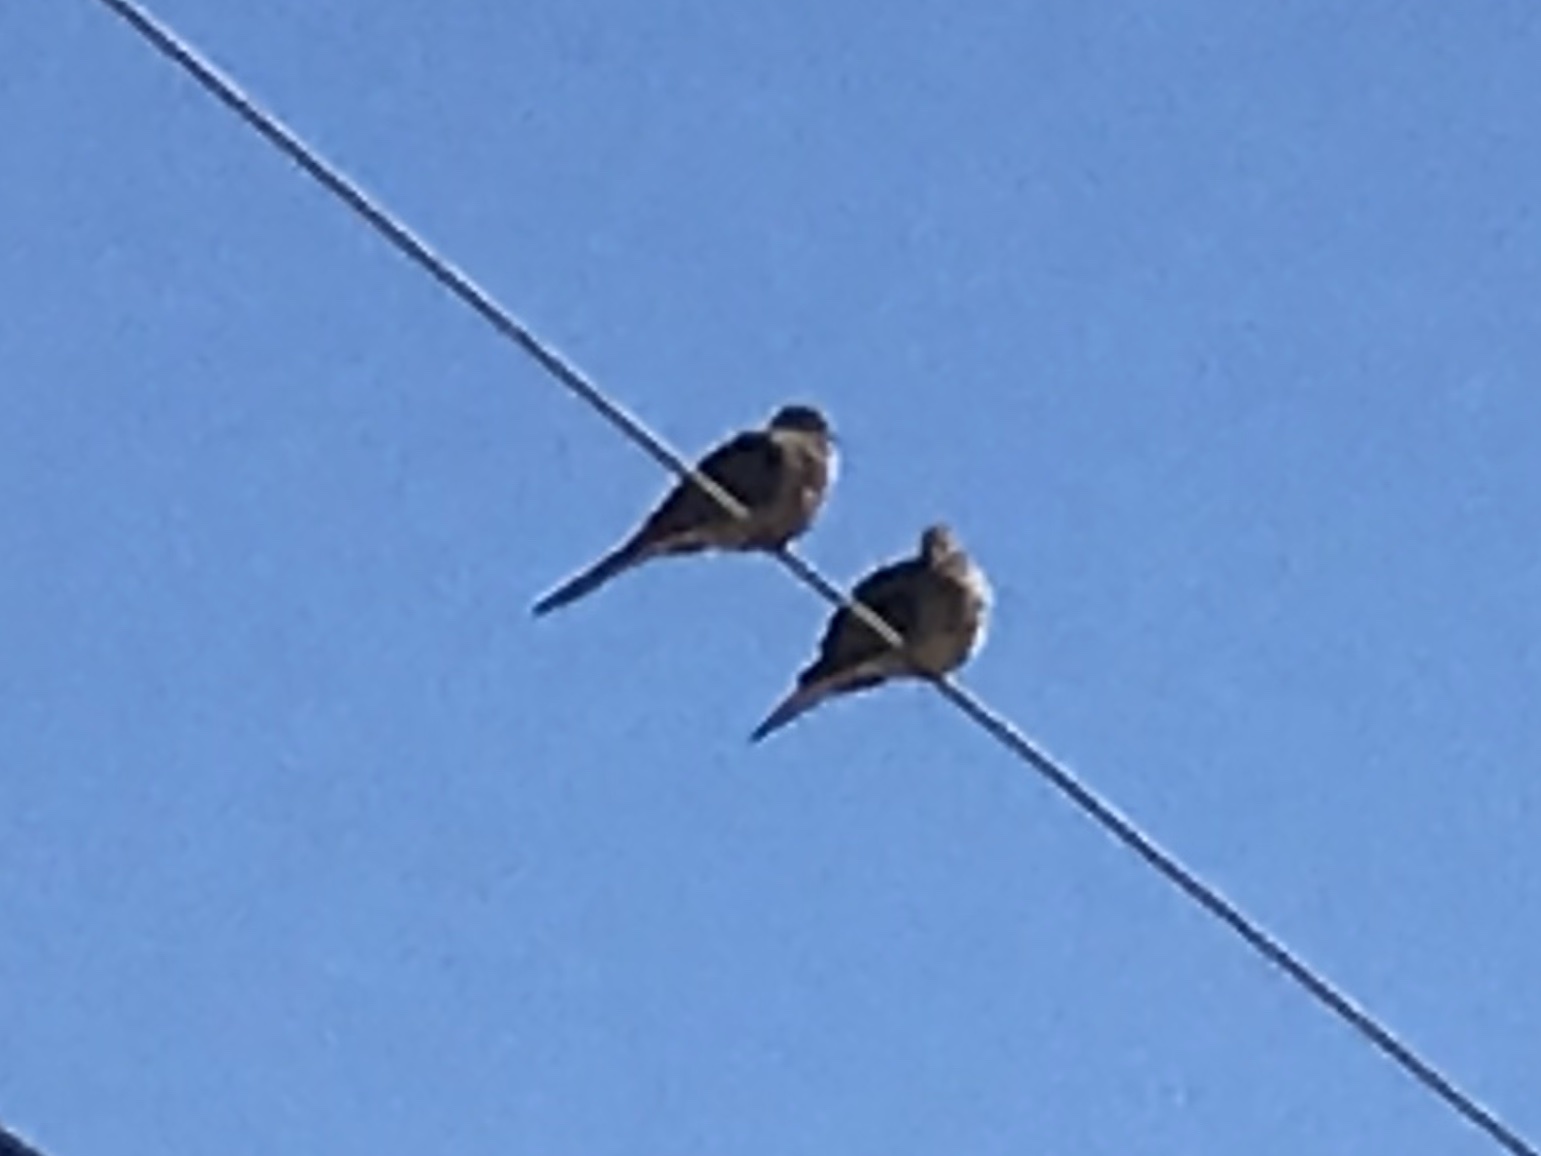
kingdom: Animalia
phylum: Chordata
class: Aves
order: Columbiformes
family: Columbidae
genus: Zenaida
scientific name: Zenaida macroura
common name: Mourning dove
